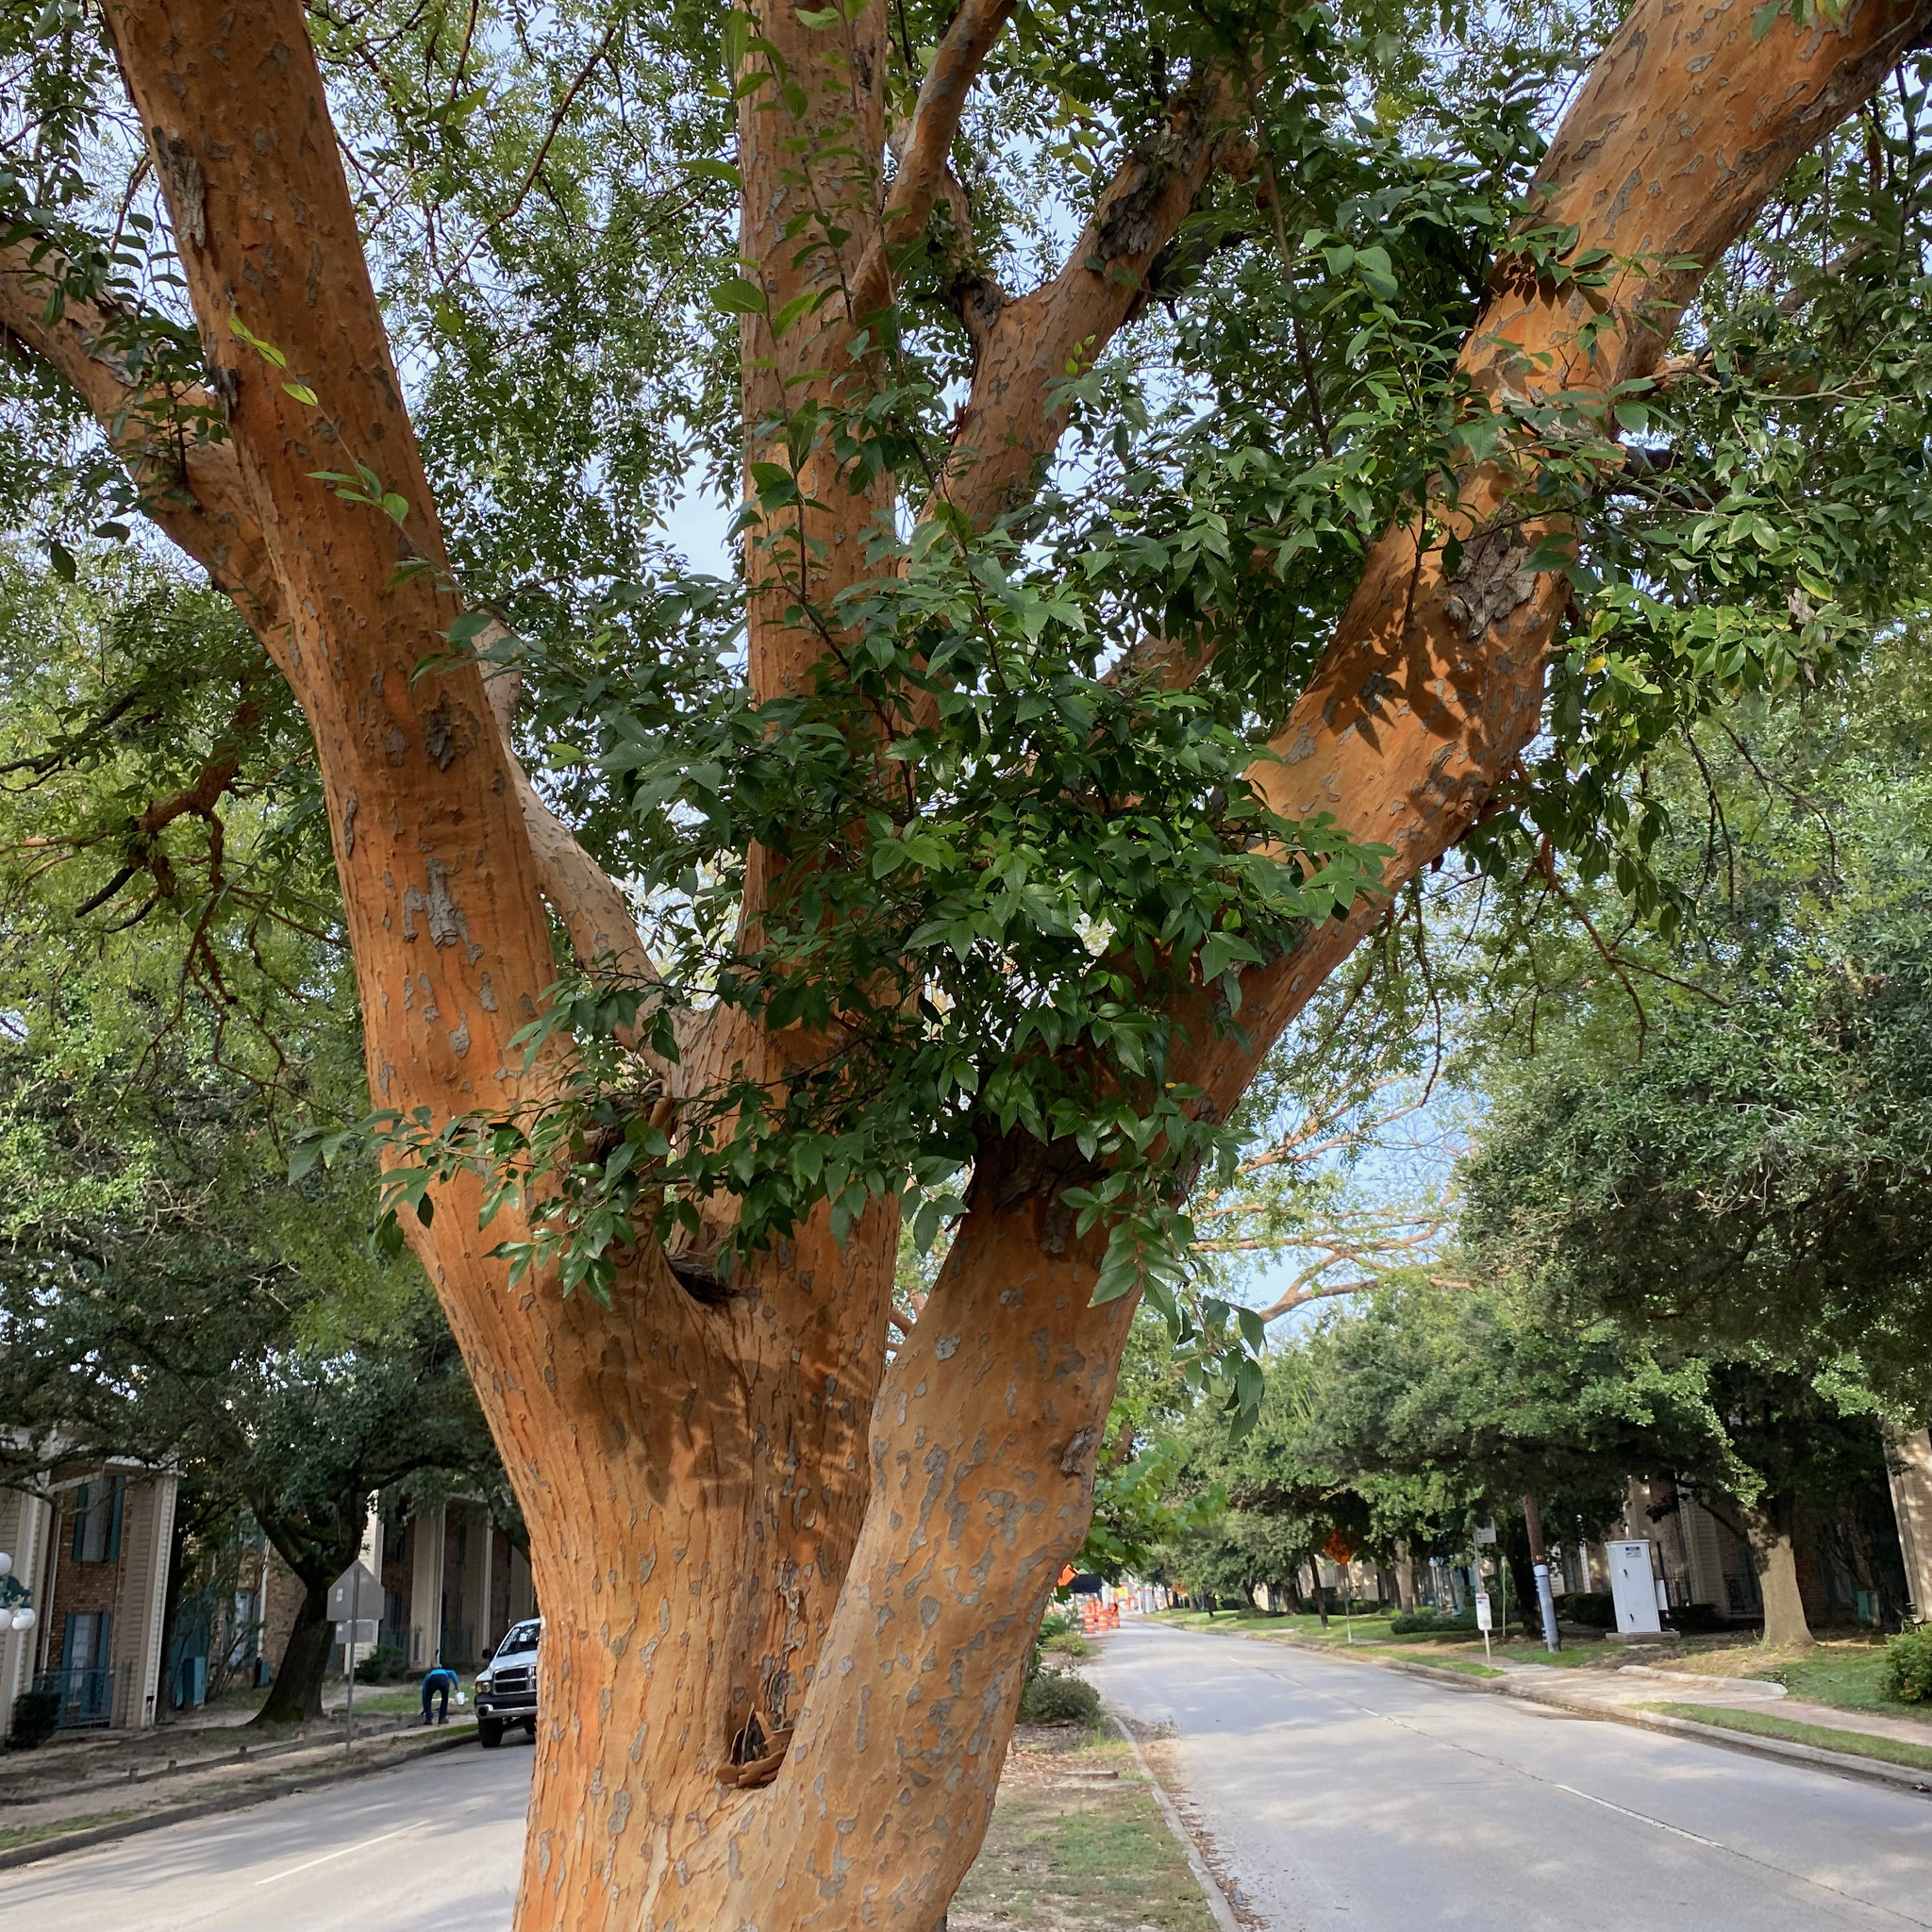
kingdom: Plantae
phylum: Tracheophyta
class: Magnoliopsida
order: Rosales
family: Ulmaceae
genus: Ulmus
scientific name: Ulmus parvifolia
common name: Chinese elm
